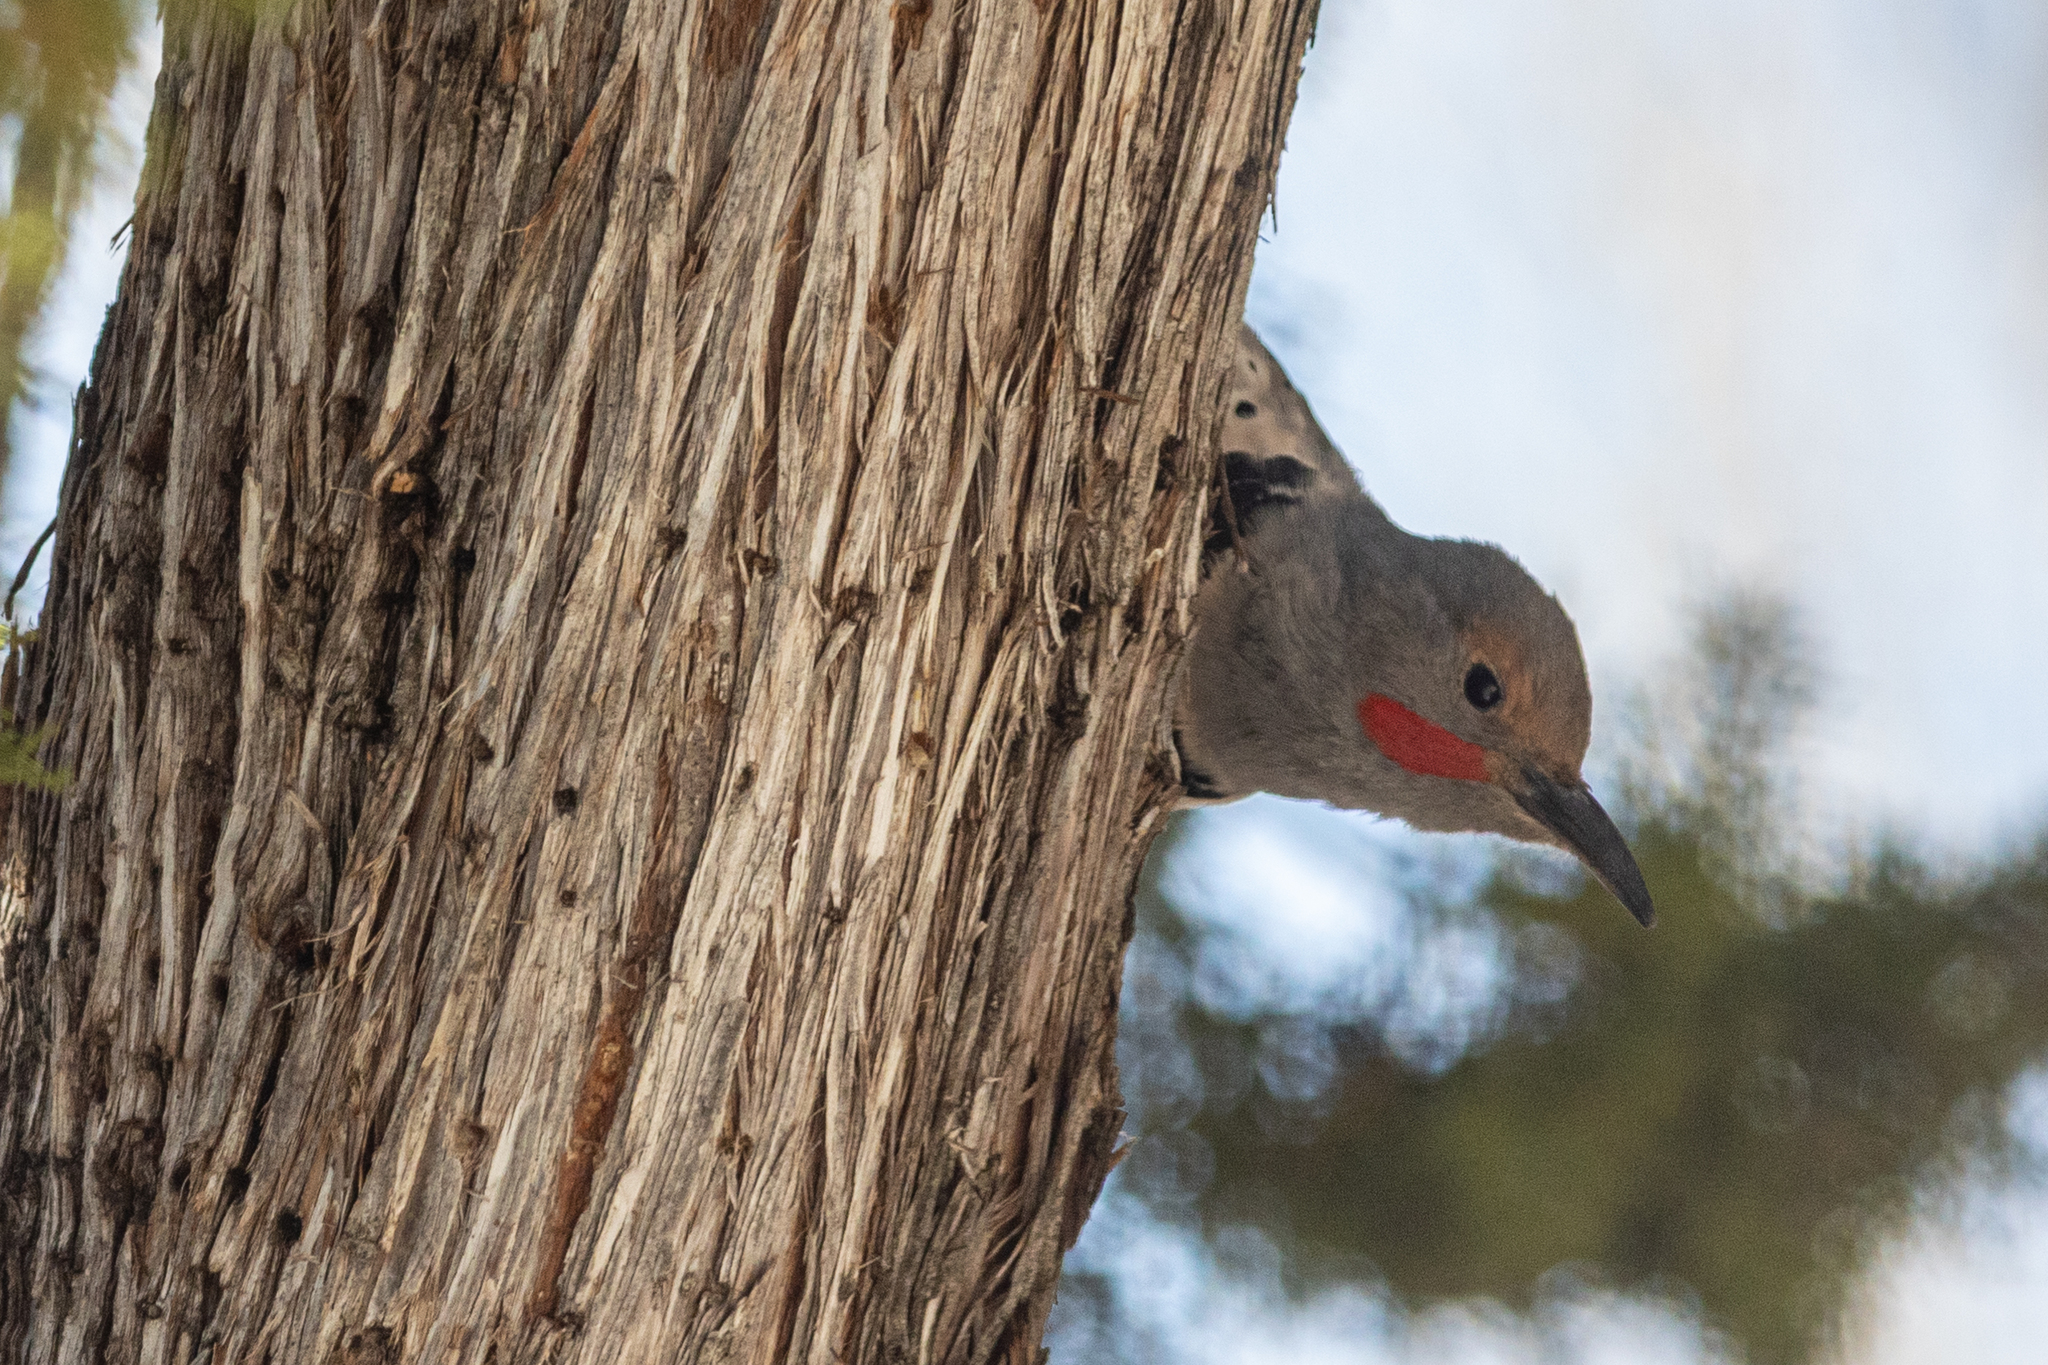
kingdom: Animalia
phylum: Chordata
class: Aves
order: Piciformes
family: Picidae
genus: Colaptes
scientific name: Colaptes auratus
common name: Northern flicker
